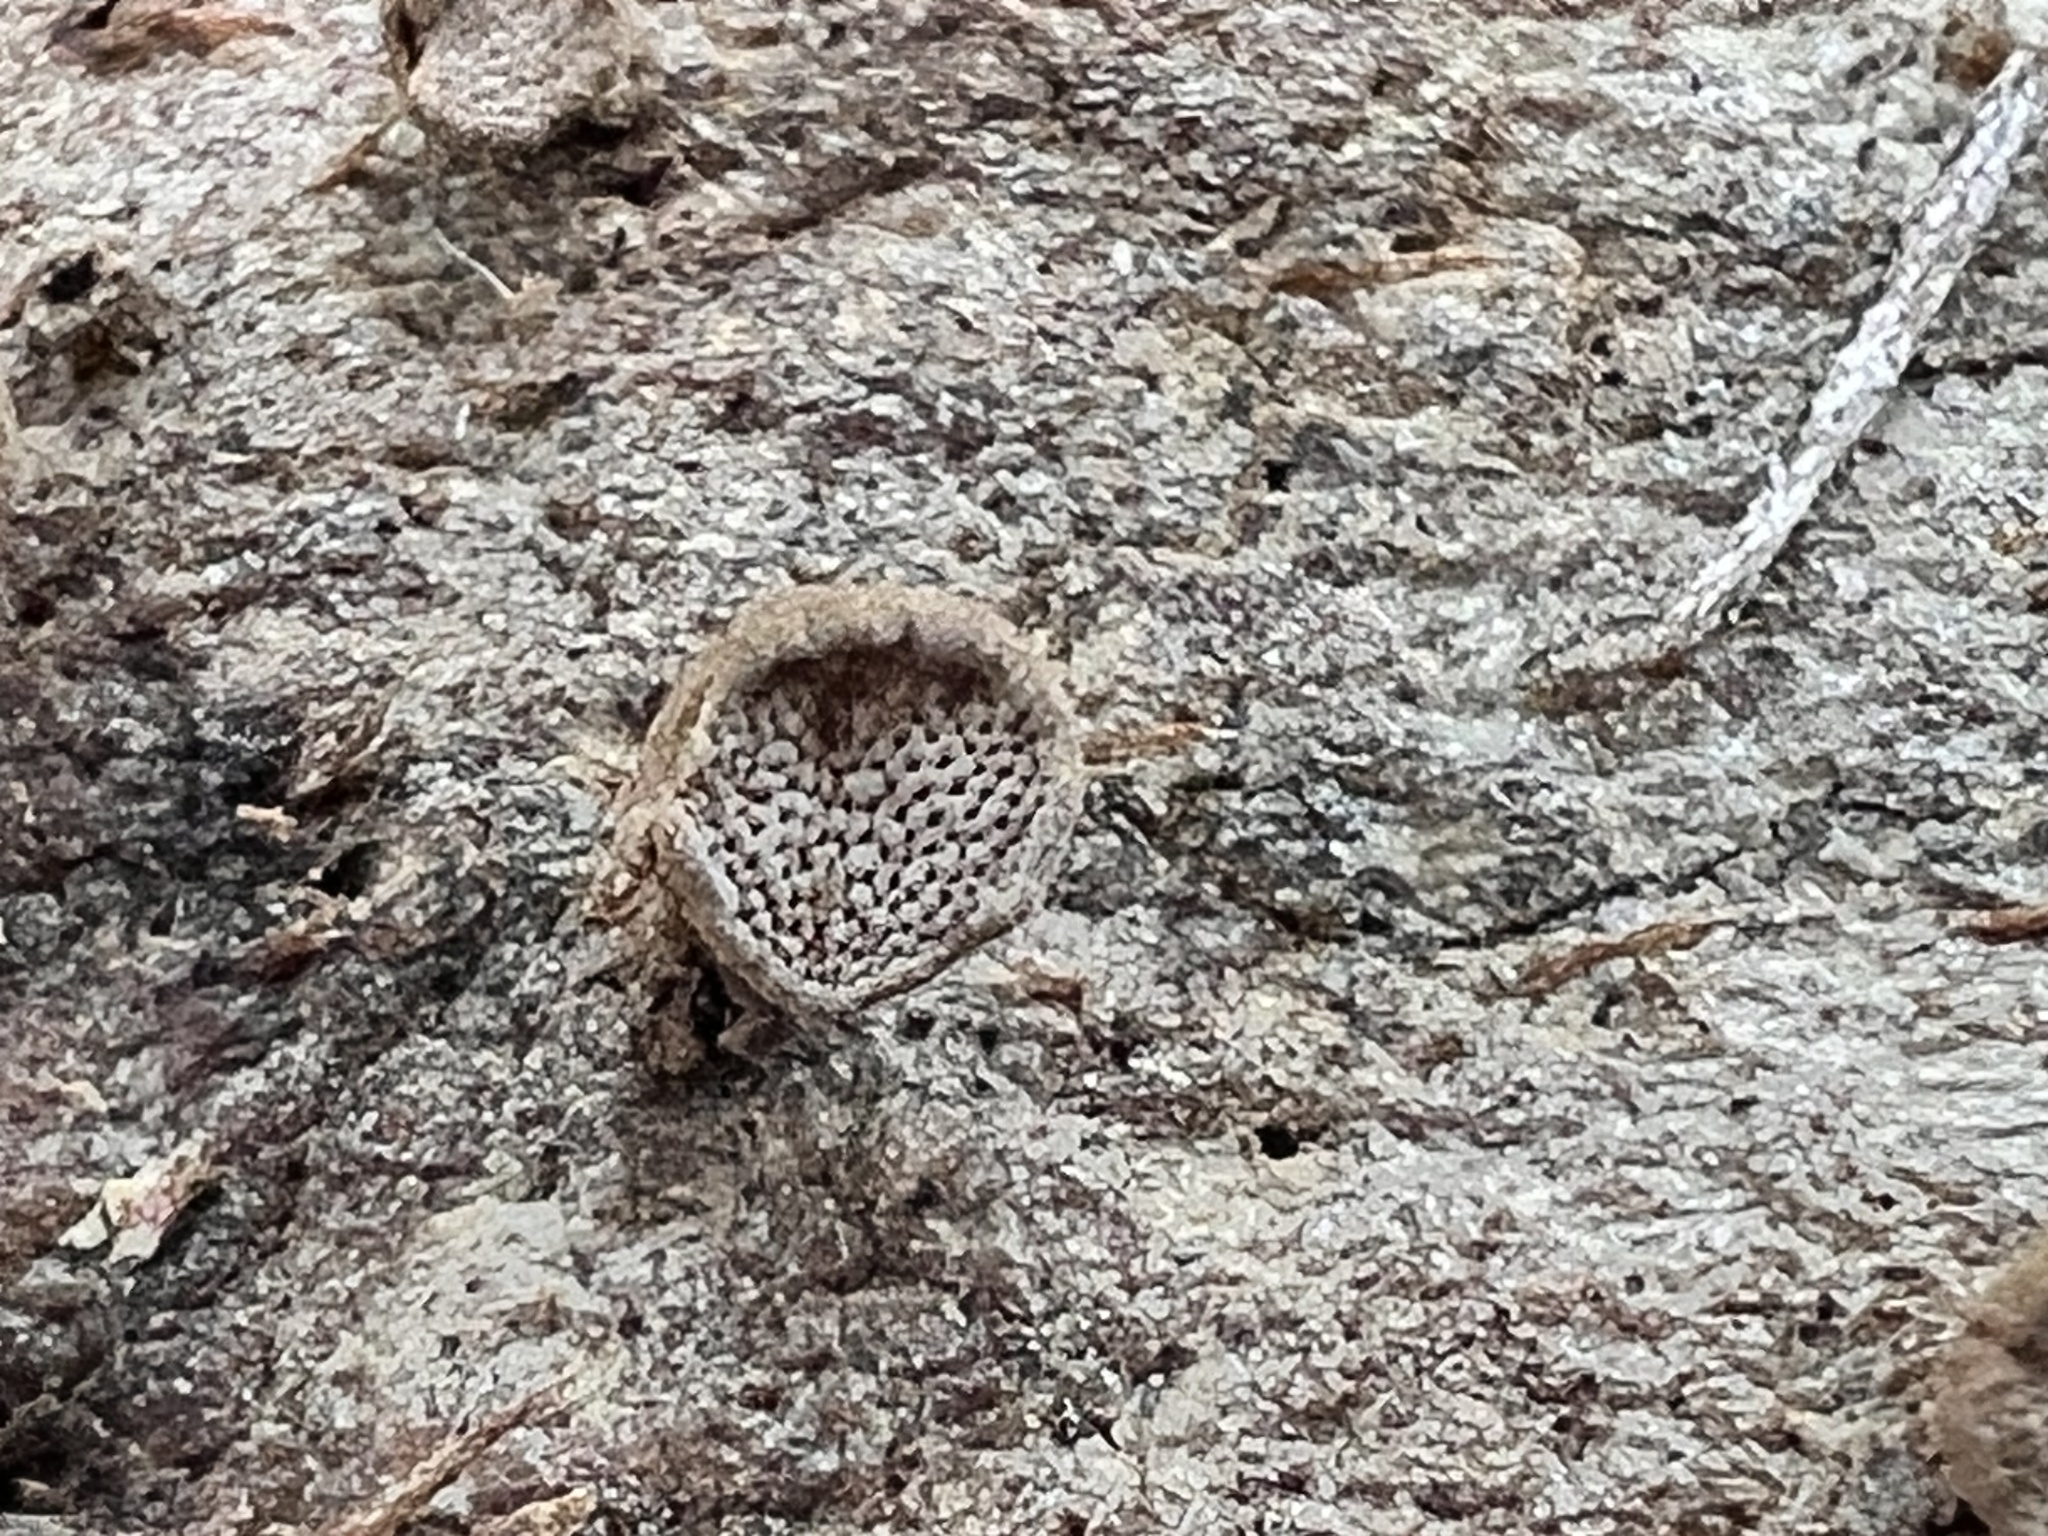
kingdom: Fungi
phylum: Basidiomycota
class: Agaricomycetes
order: Agaricales
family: Schizophyllaceae
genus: Porodisculus
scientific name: Porodisculus pendulus
